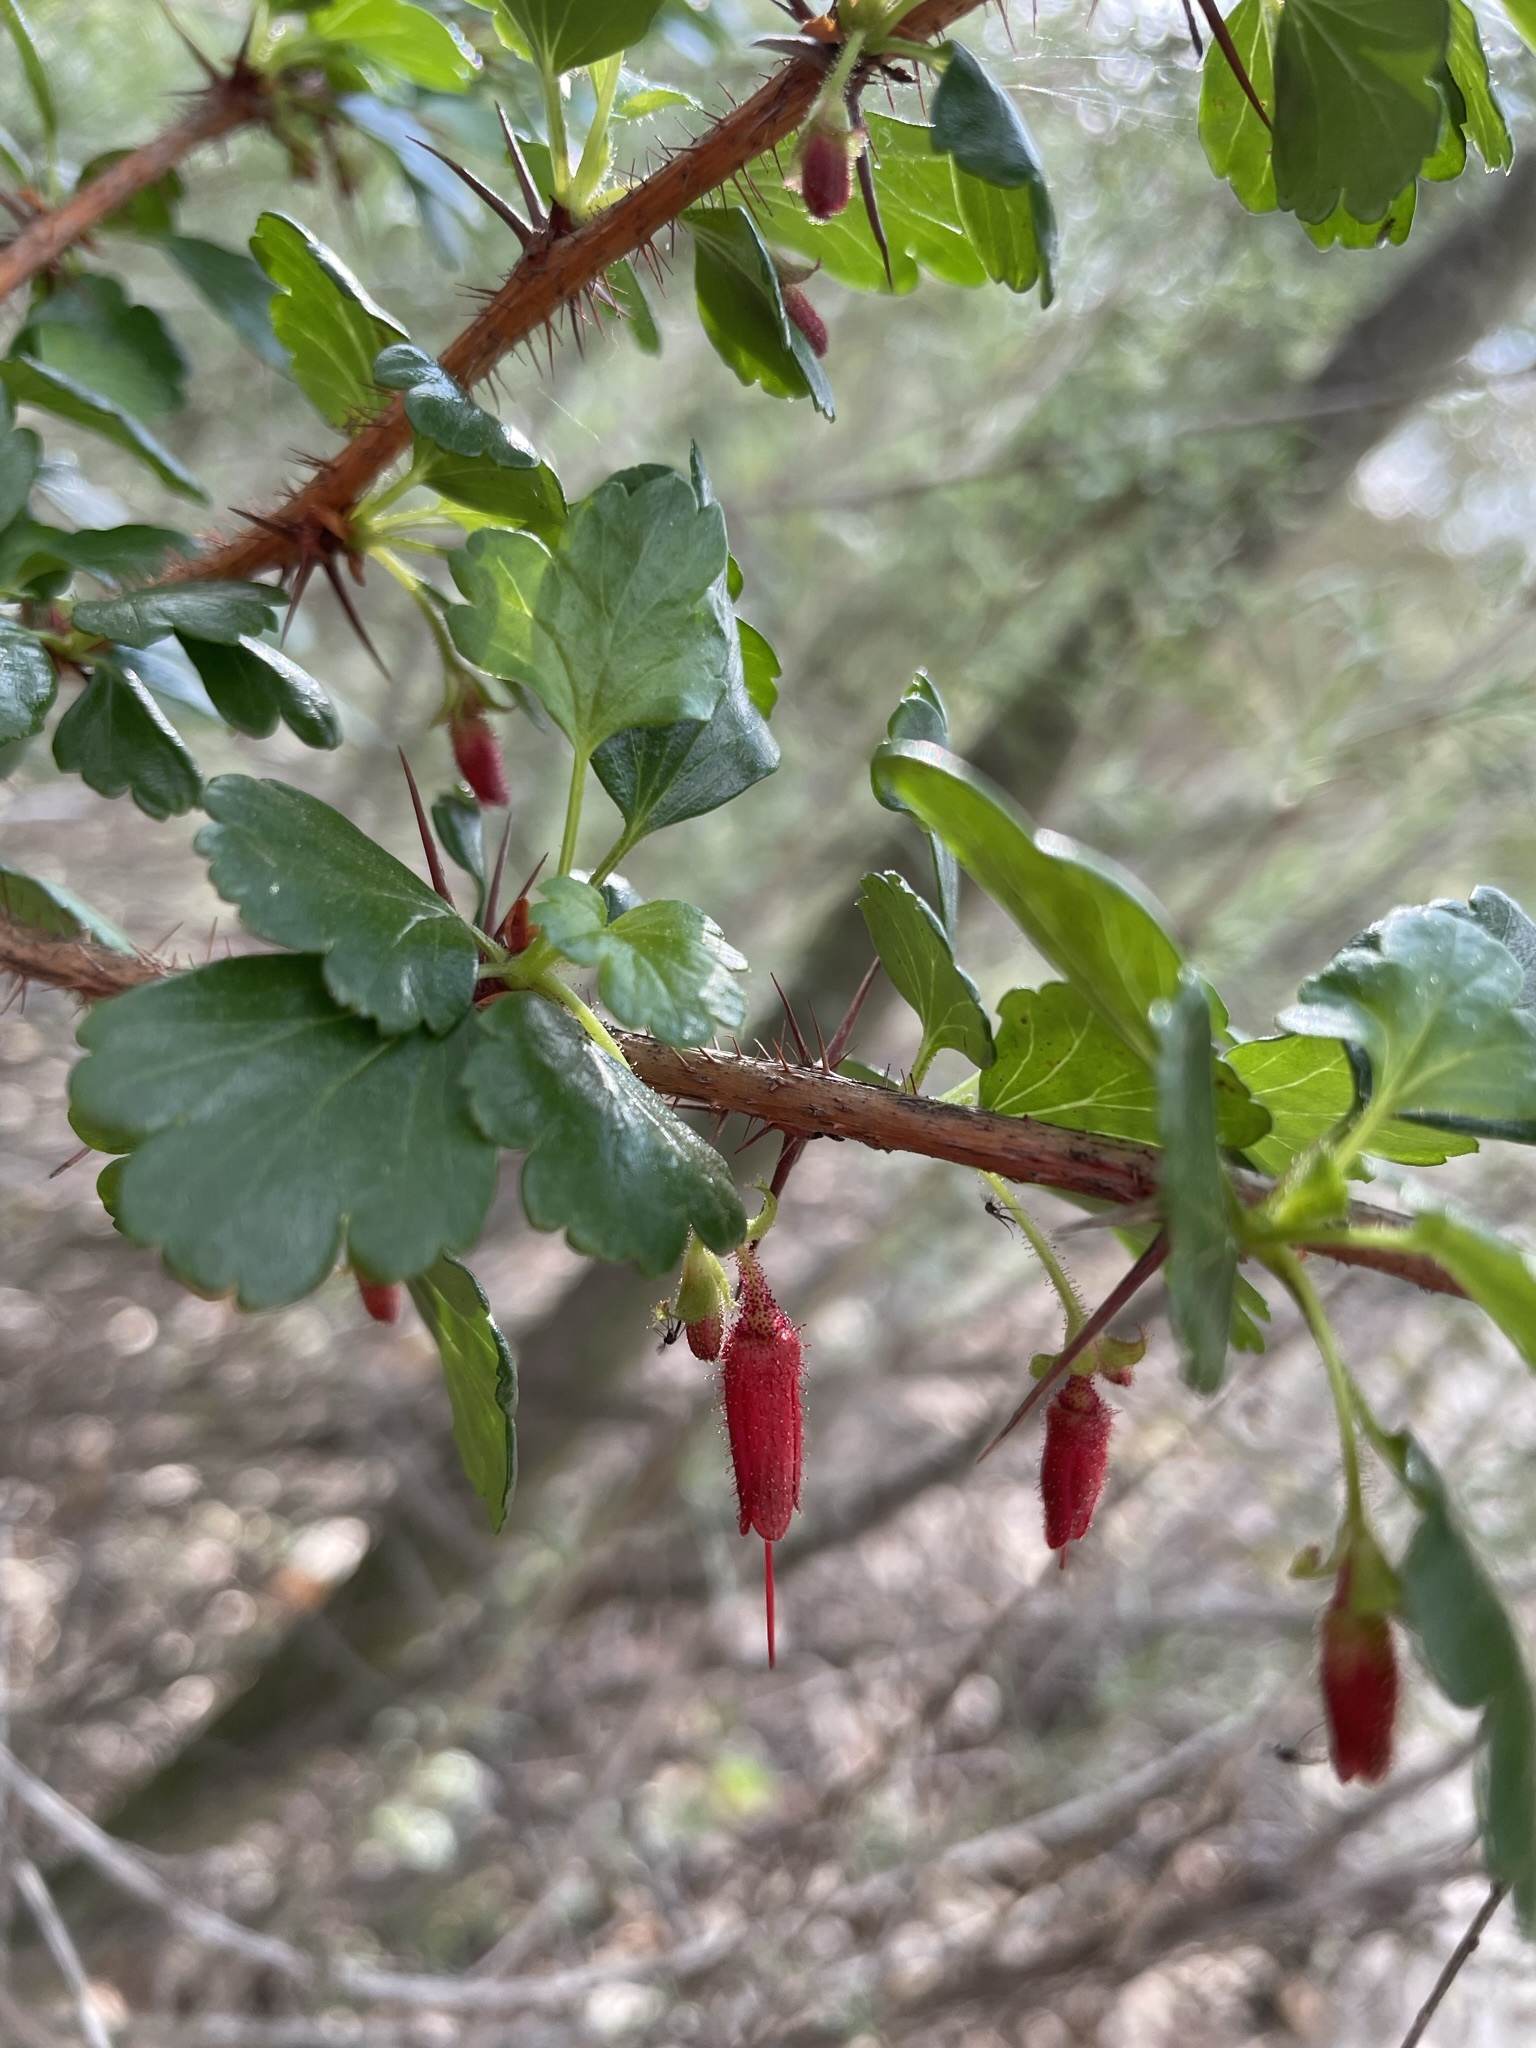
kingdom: Plantae
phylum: Tracheophyta
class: Magnoliopsida
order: Saxifragales
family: Grossulariaceae
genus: Ribes
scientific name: Ribes speciosum
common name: Fuchsia-flower gooseberry
